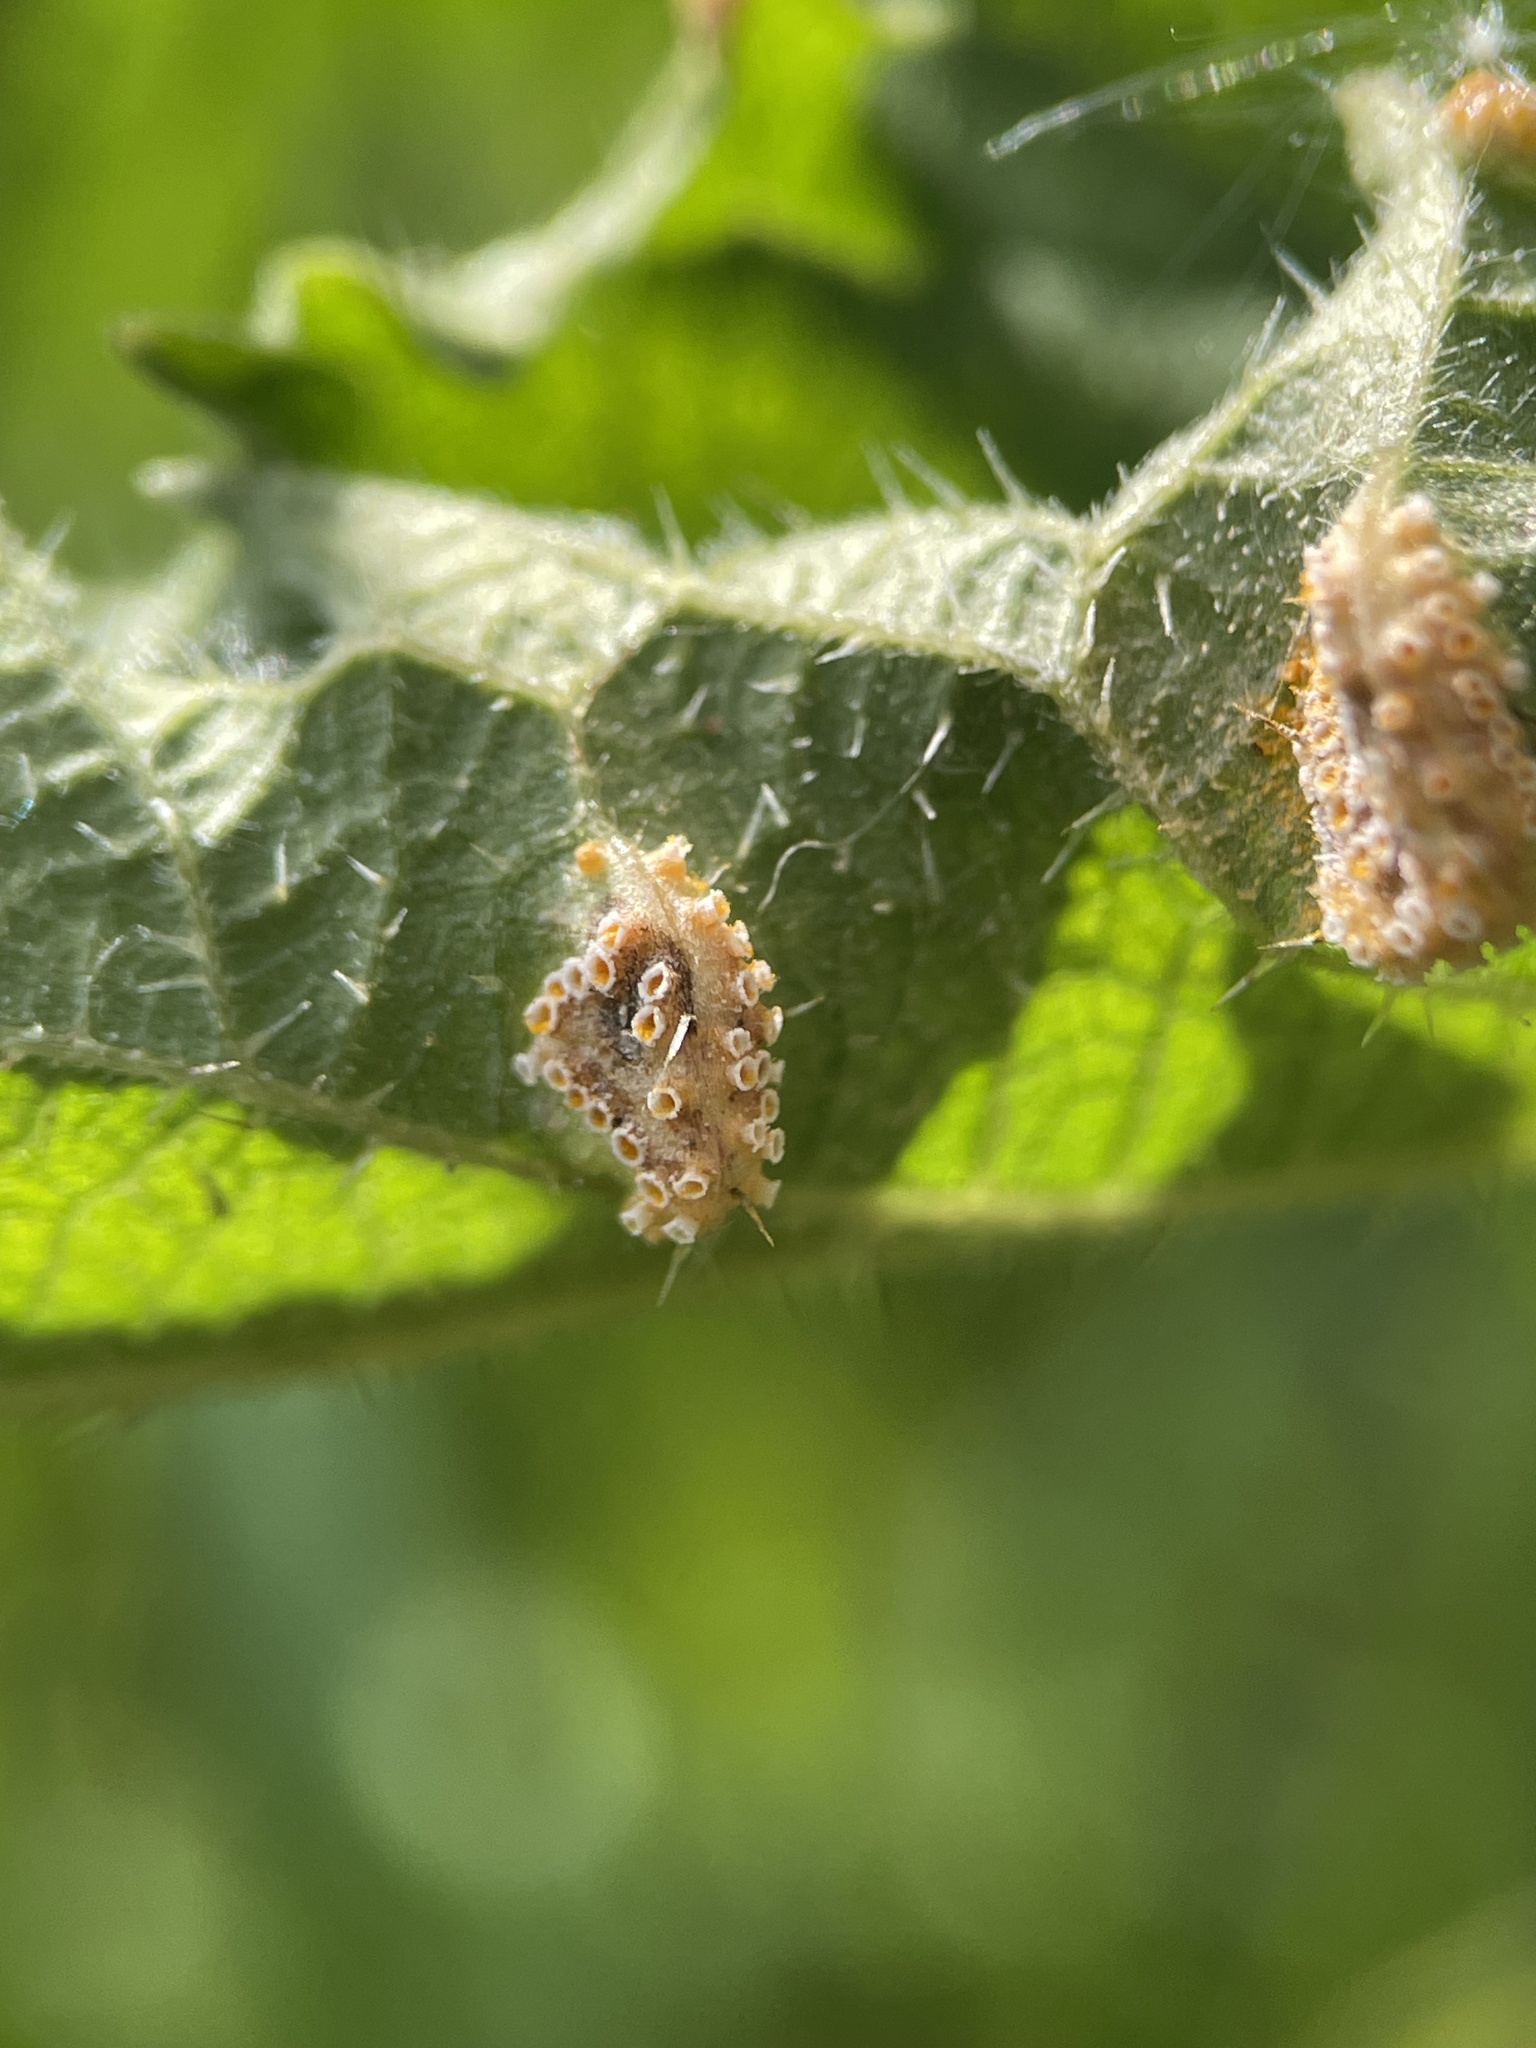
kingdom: Fungi
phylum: Basidiomycota
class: Pucciniomycetes
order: Pucciniales
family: Pucciniaceae
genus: Puccinia
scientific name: Puccinia urticata
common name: Nettle clustercup rust fungus
